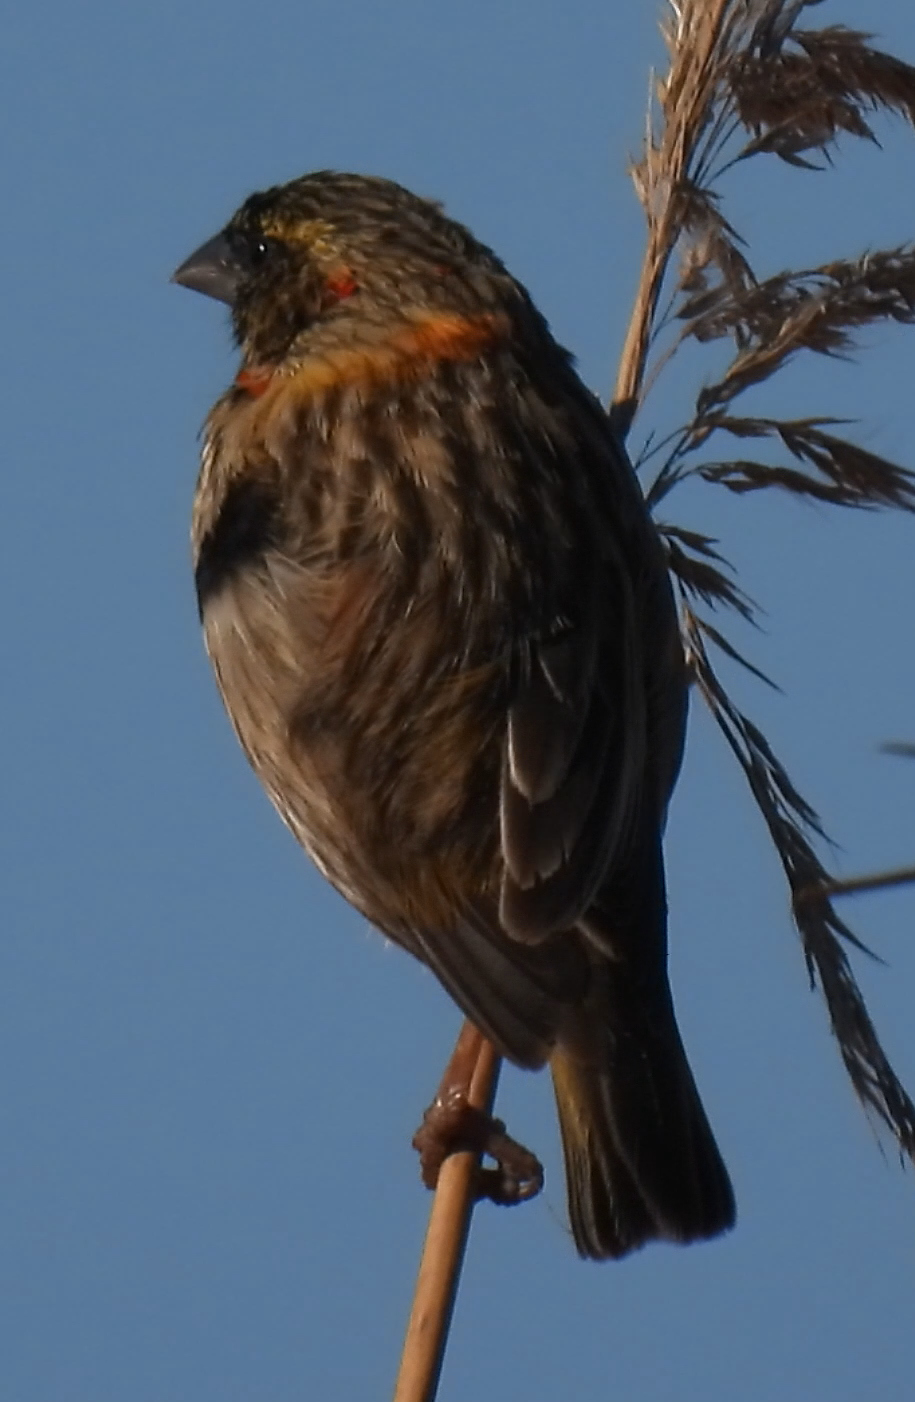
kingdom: Animalia
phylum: Chordata
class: Aves
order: Passeriformes
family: Ploceidae
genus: Euplectes
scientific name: Euplectes orix
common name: Southern red bishop
